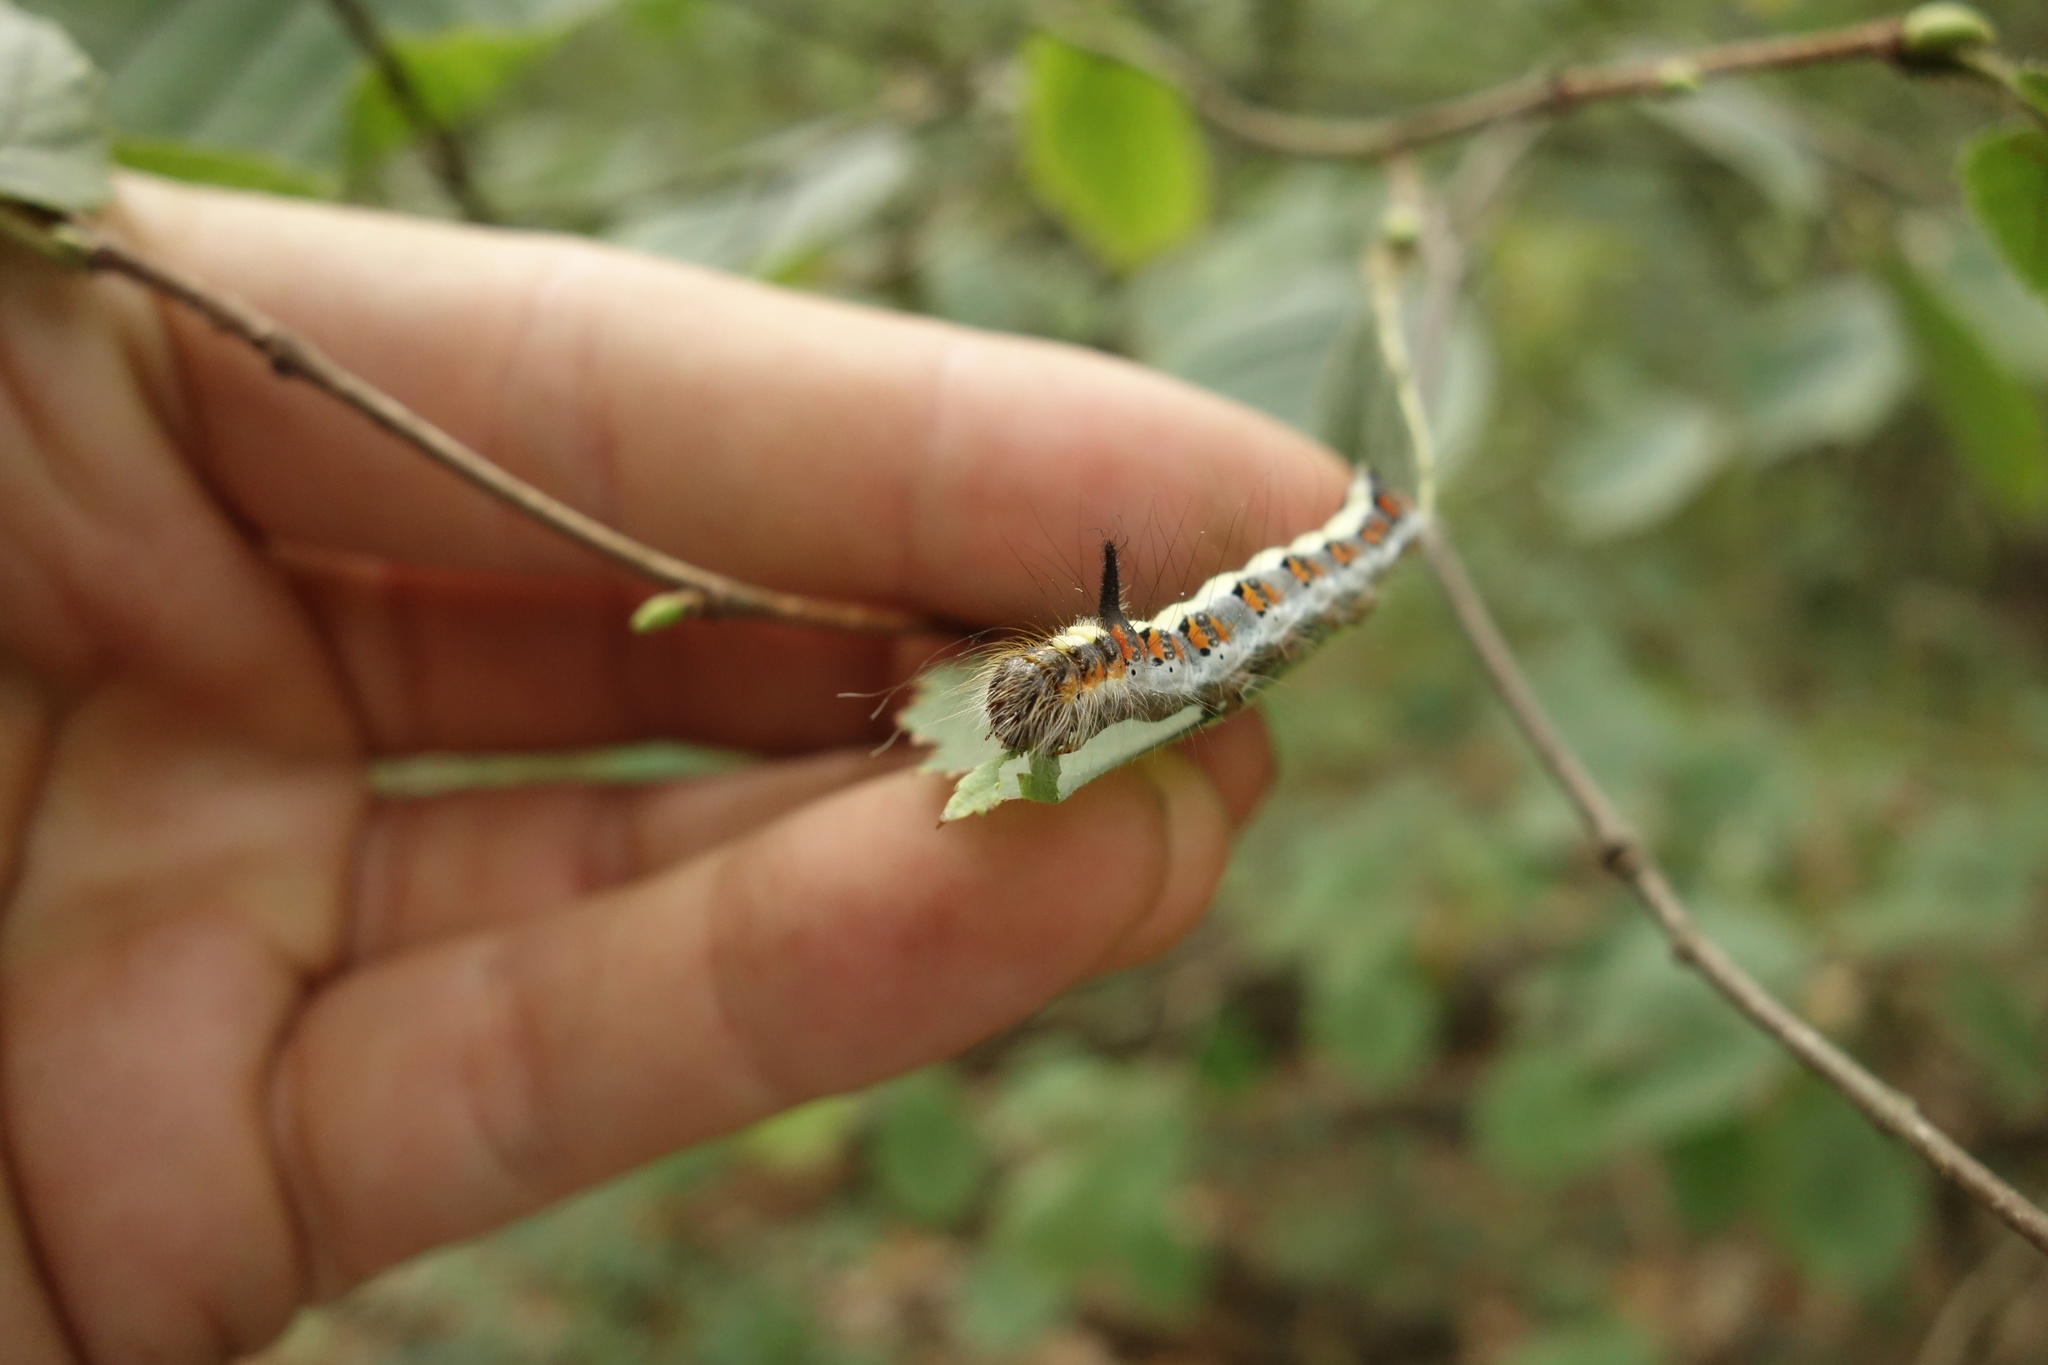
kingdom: Animalia
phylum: Arthropoda
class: Insecta
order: Lepidoptera
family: Noctuidae
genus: Acronicta
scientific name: Acronicta psi
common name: Grey dagger
